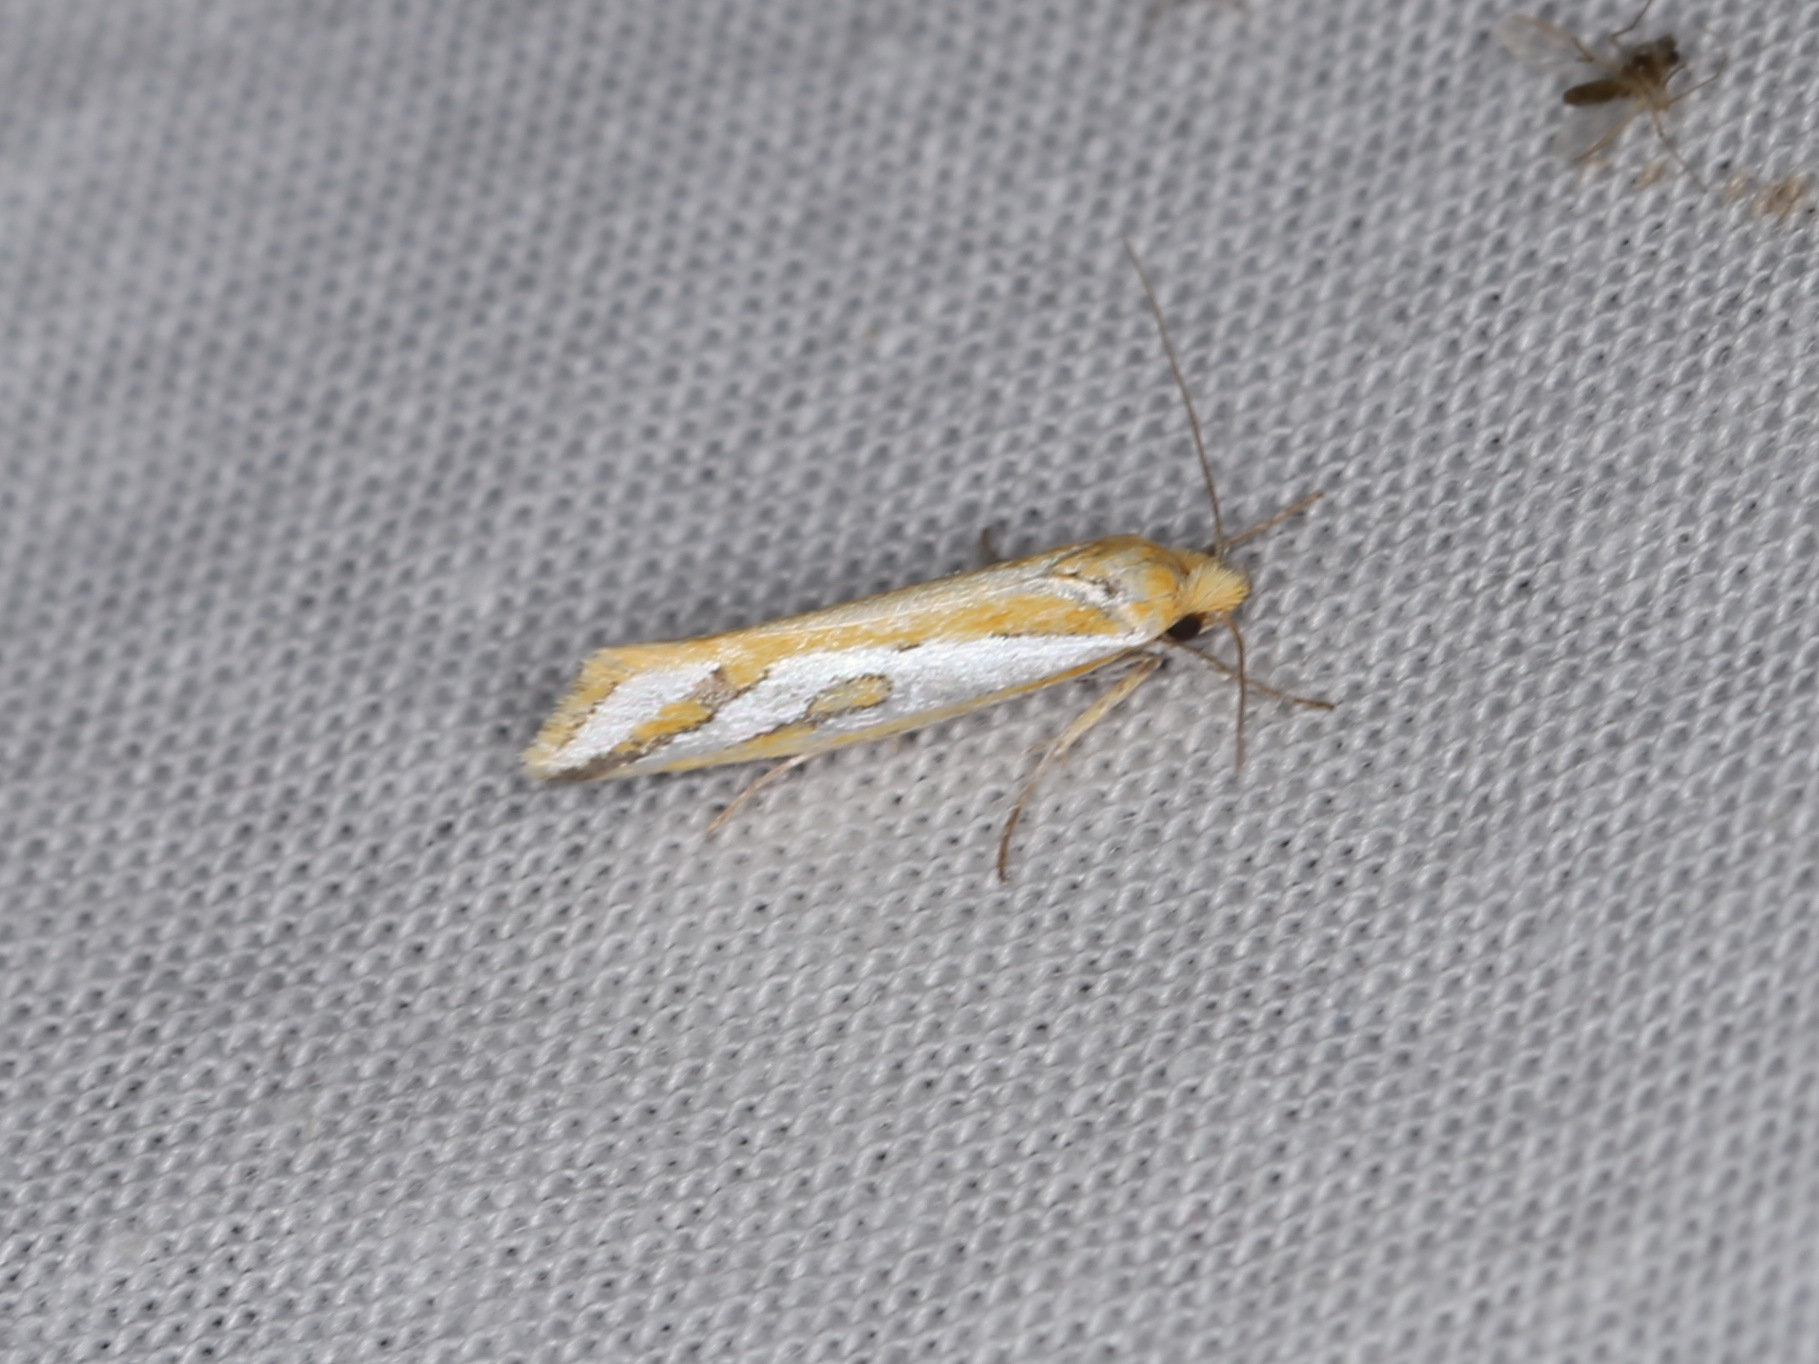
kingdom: Animalia
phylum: Arthropoda
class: Insecta
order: Lepidoptera
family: Depressariidae
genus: Thudaca
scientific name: Thudaca haplonota
